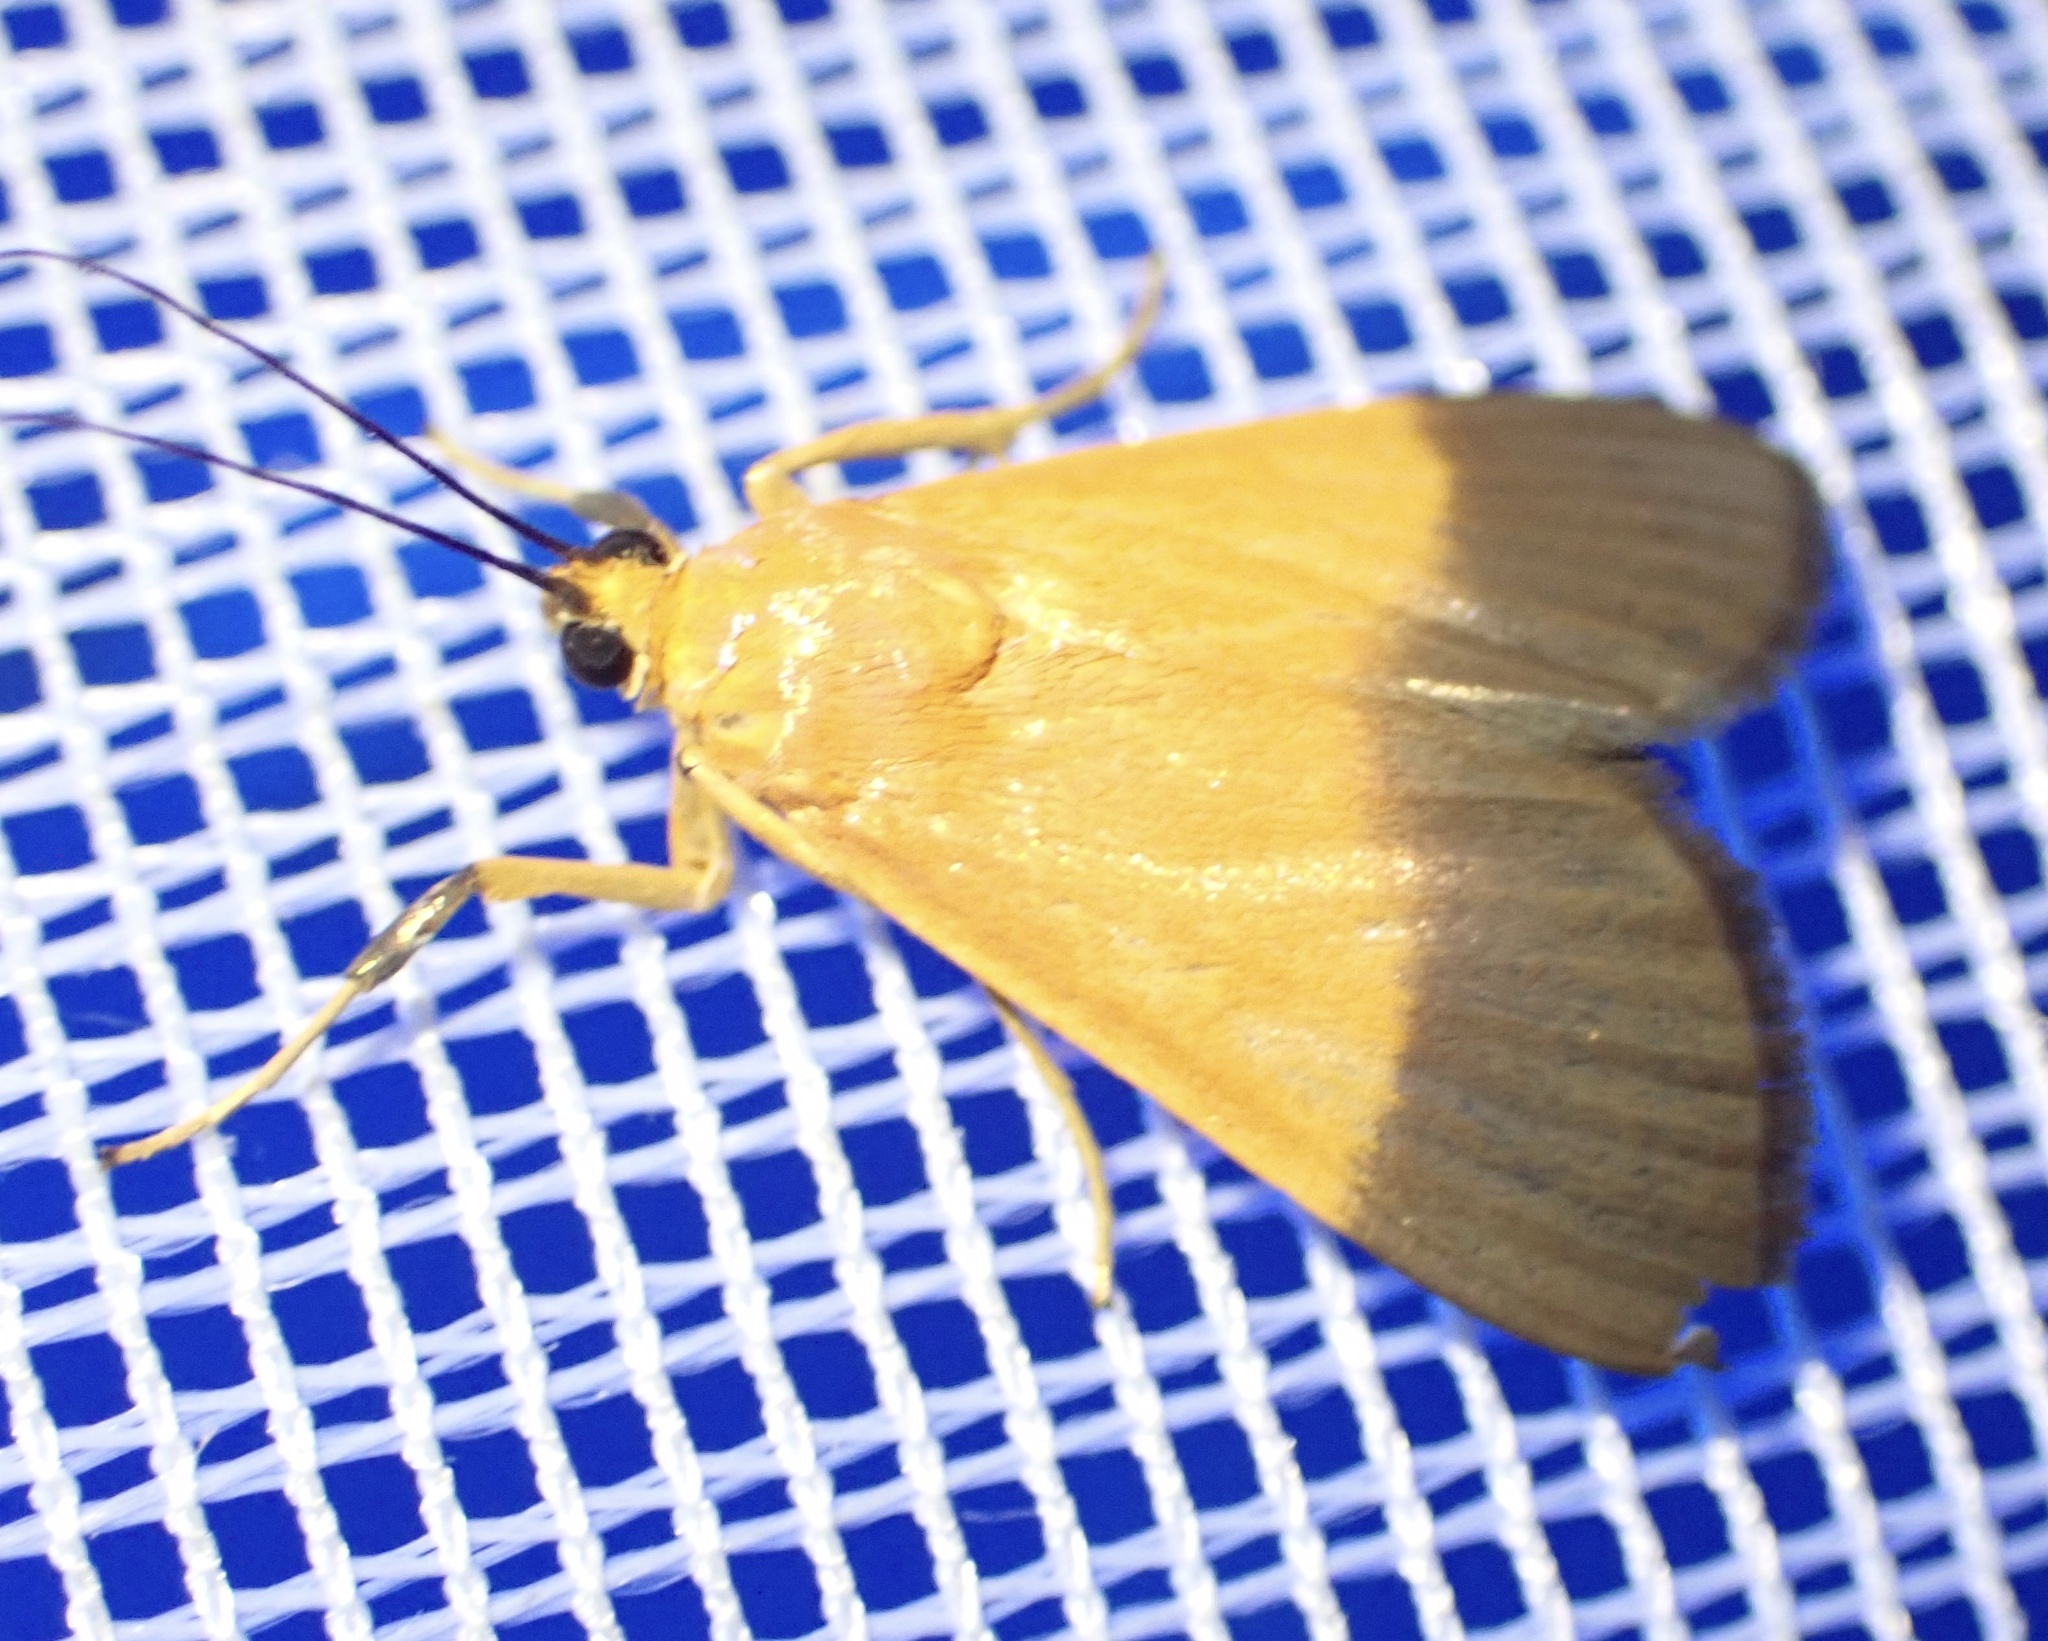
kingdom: Animalia
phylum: Arthropoda
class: Insecta
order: Lepidoptera
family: Crambidae
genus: Ulopeza
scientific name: Ulopeza conigeralis
